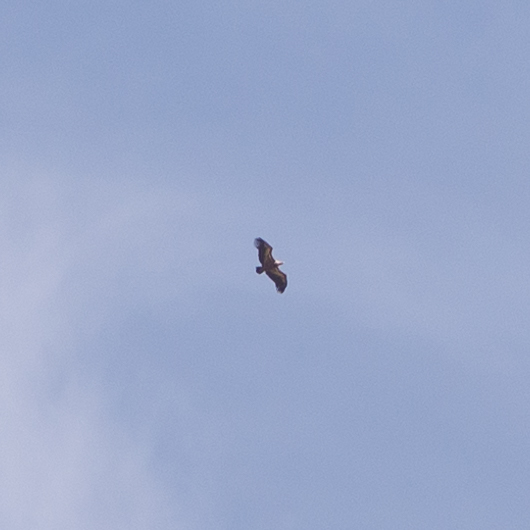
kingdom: Animalia
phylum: Chordata
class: Aves
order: Accipitriformes
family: Accipitridae
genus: Gyps
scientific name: Gyps fulvus
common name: Griffon vulture
